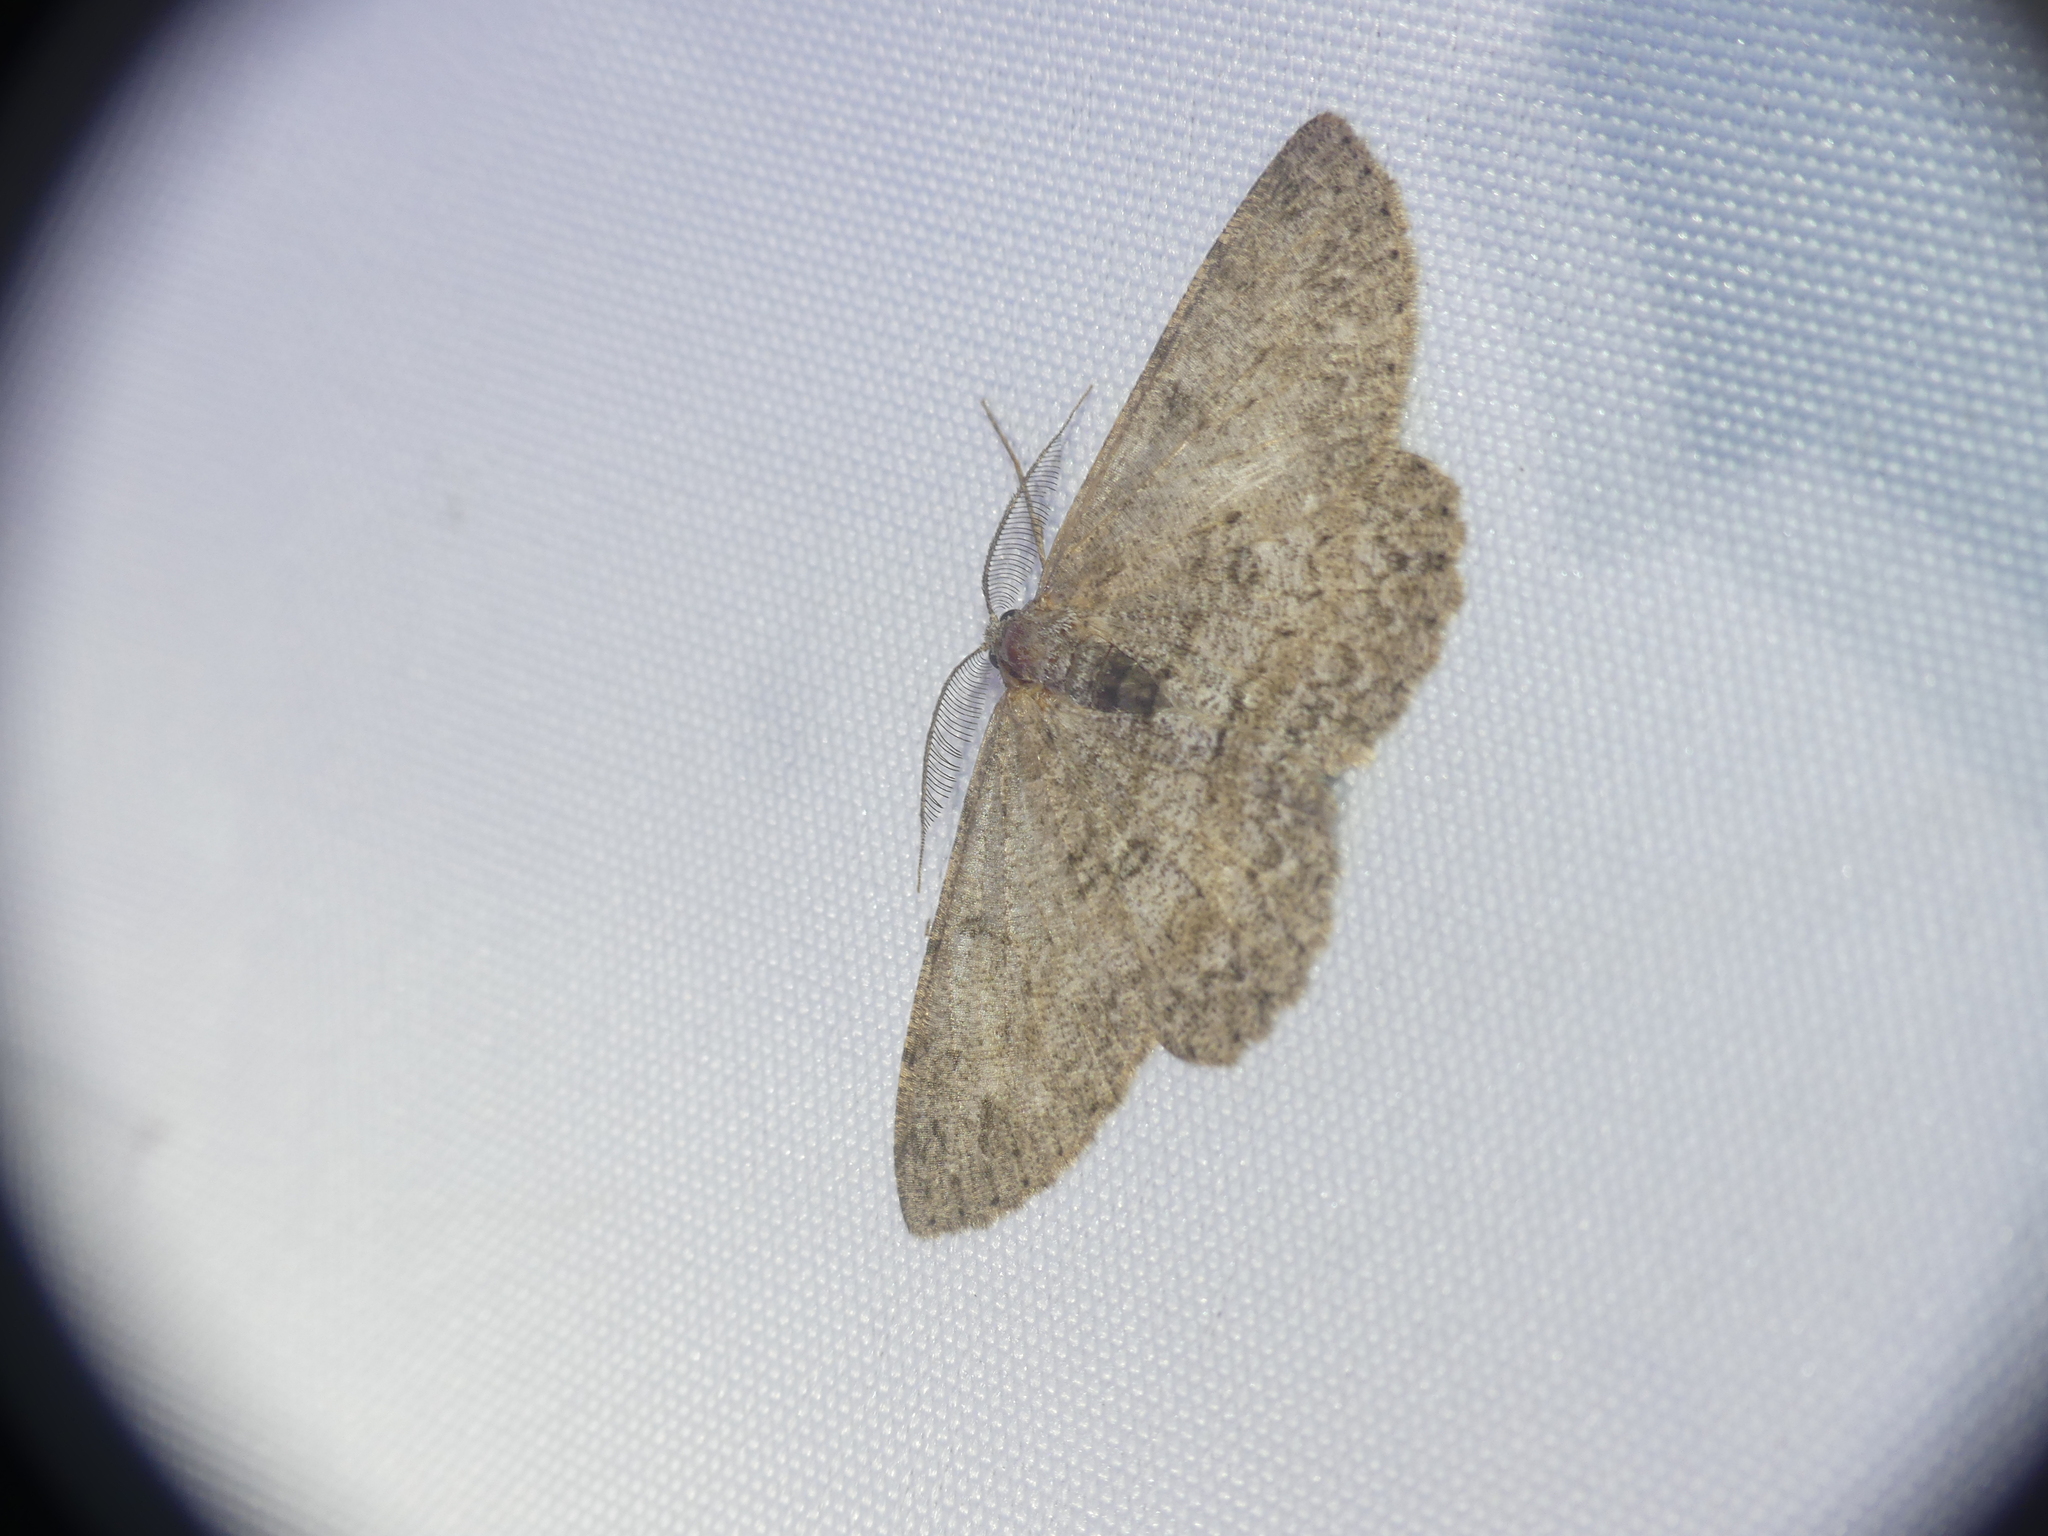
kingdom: Animalia
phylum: Arthropoda
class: Insecta
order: Lepidoptera
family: Geometridae
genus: Hypomecis
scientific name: Hypomecis punctinalis
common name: Pale oak beauty
